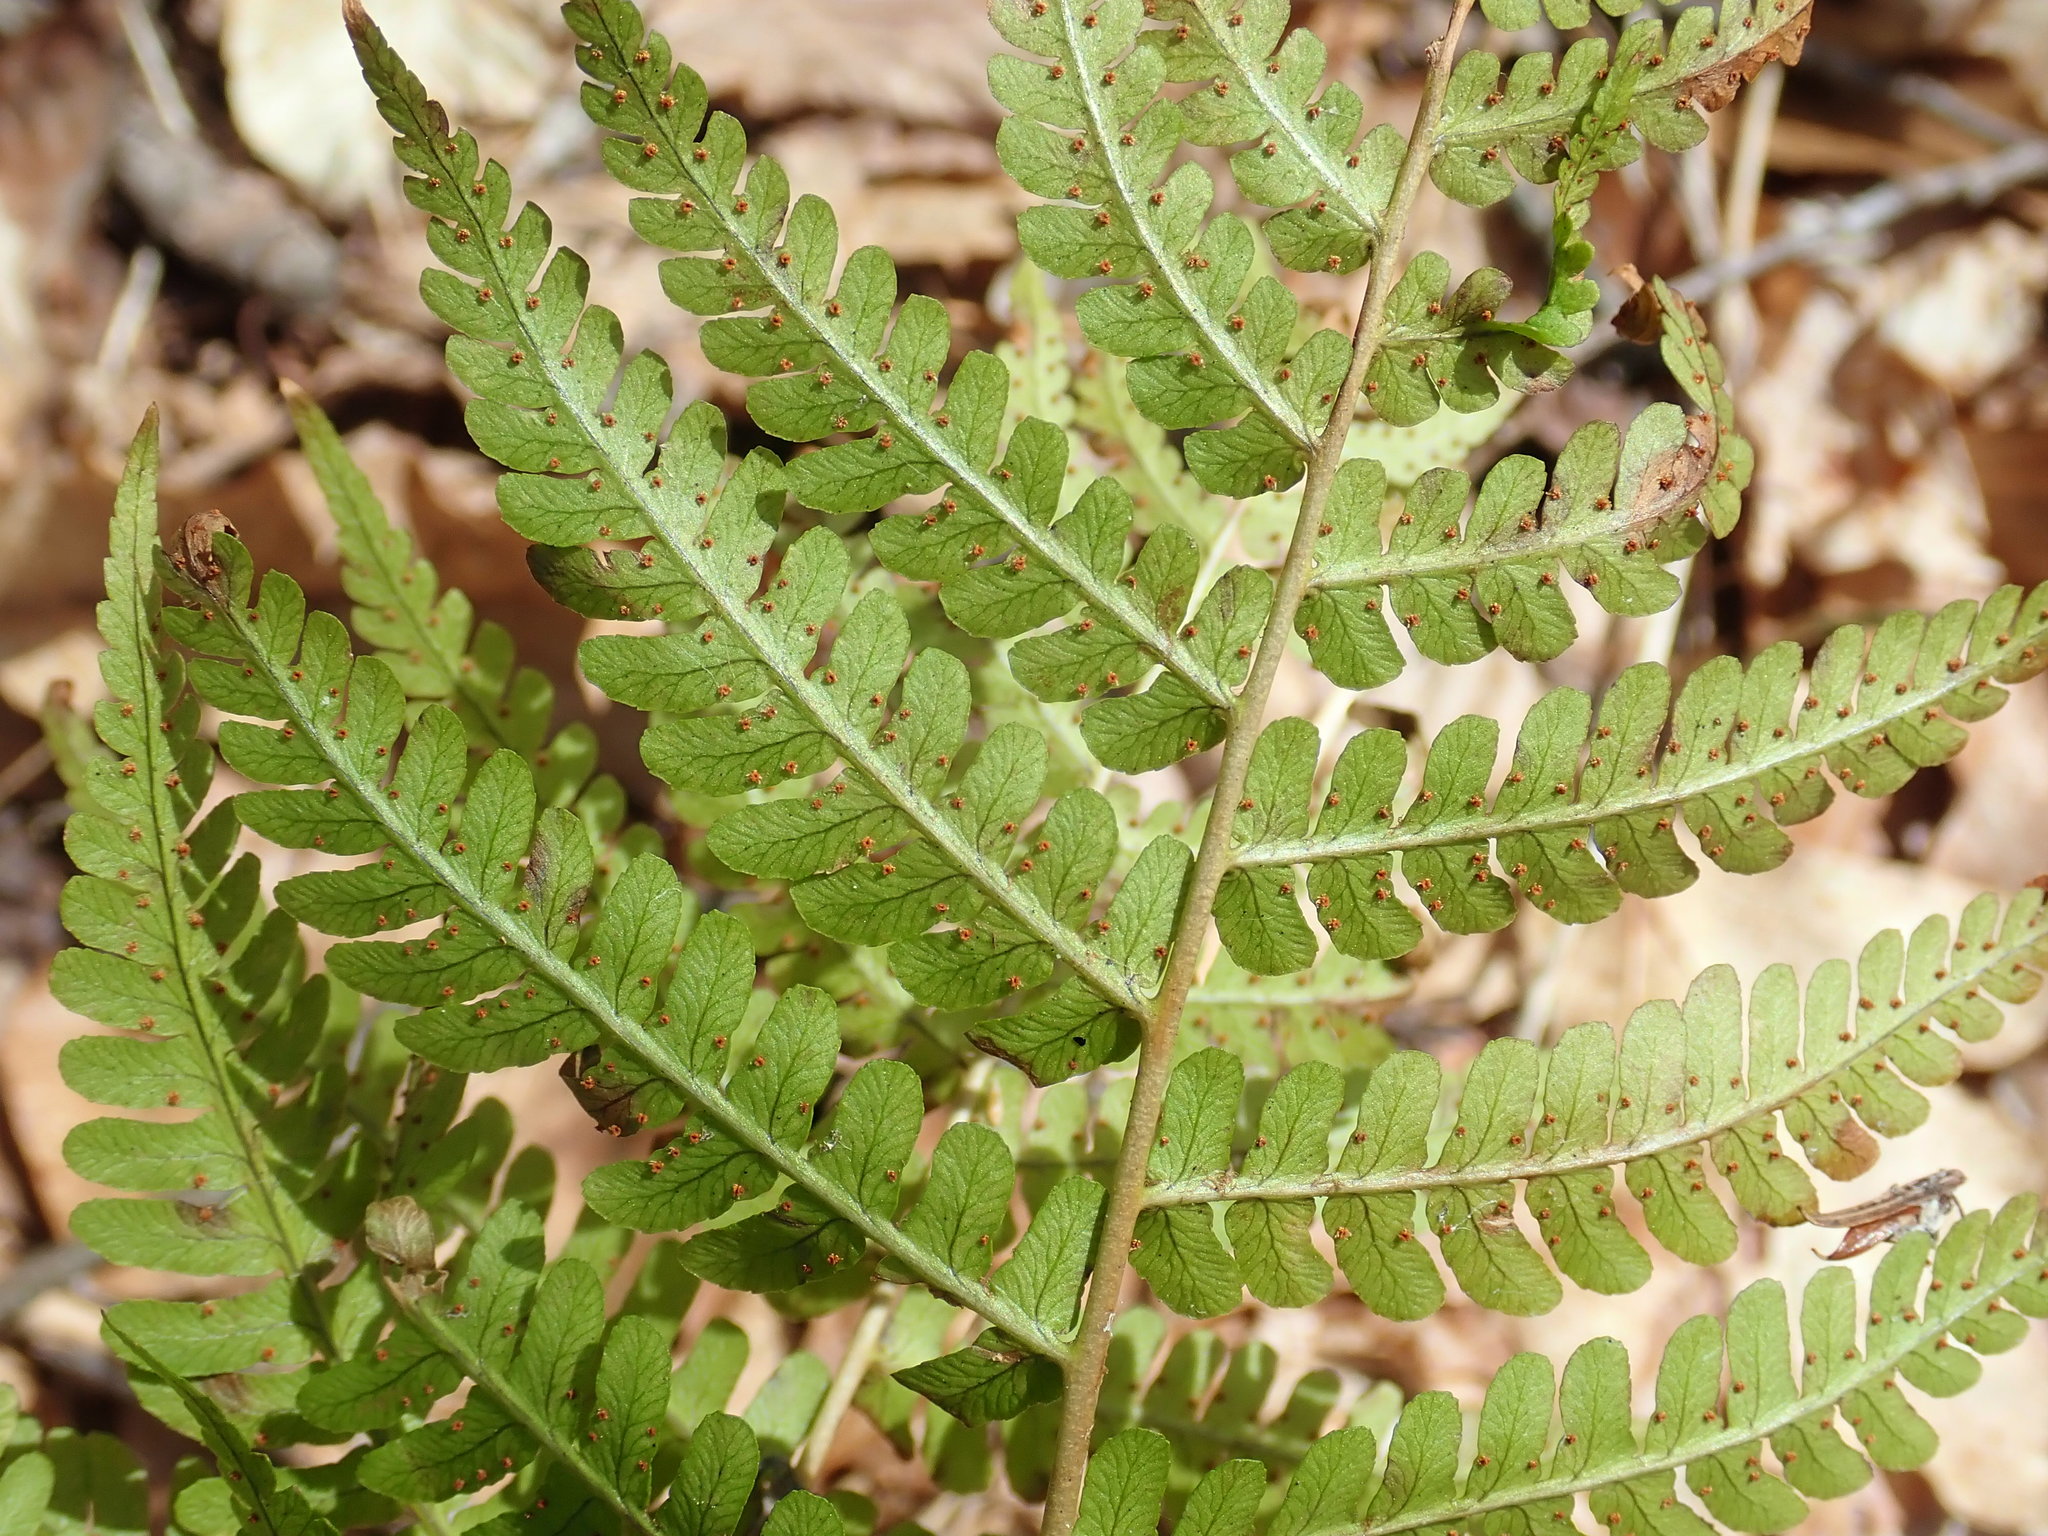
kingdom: Plantae
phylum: Tracheophyta
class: Polypodiopsida
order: Polypodiales
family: Dryopteridaceae
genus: Dryopteris
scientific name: Dryopteris marginalis
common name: Marginal wood fern
